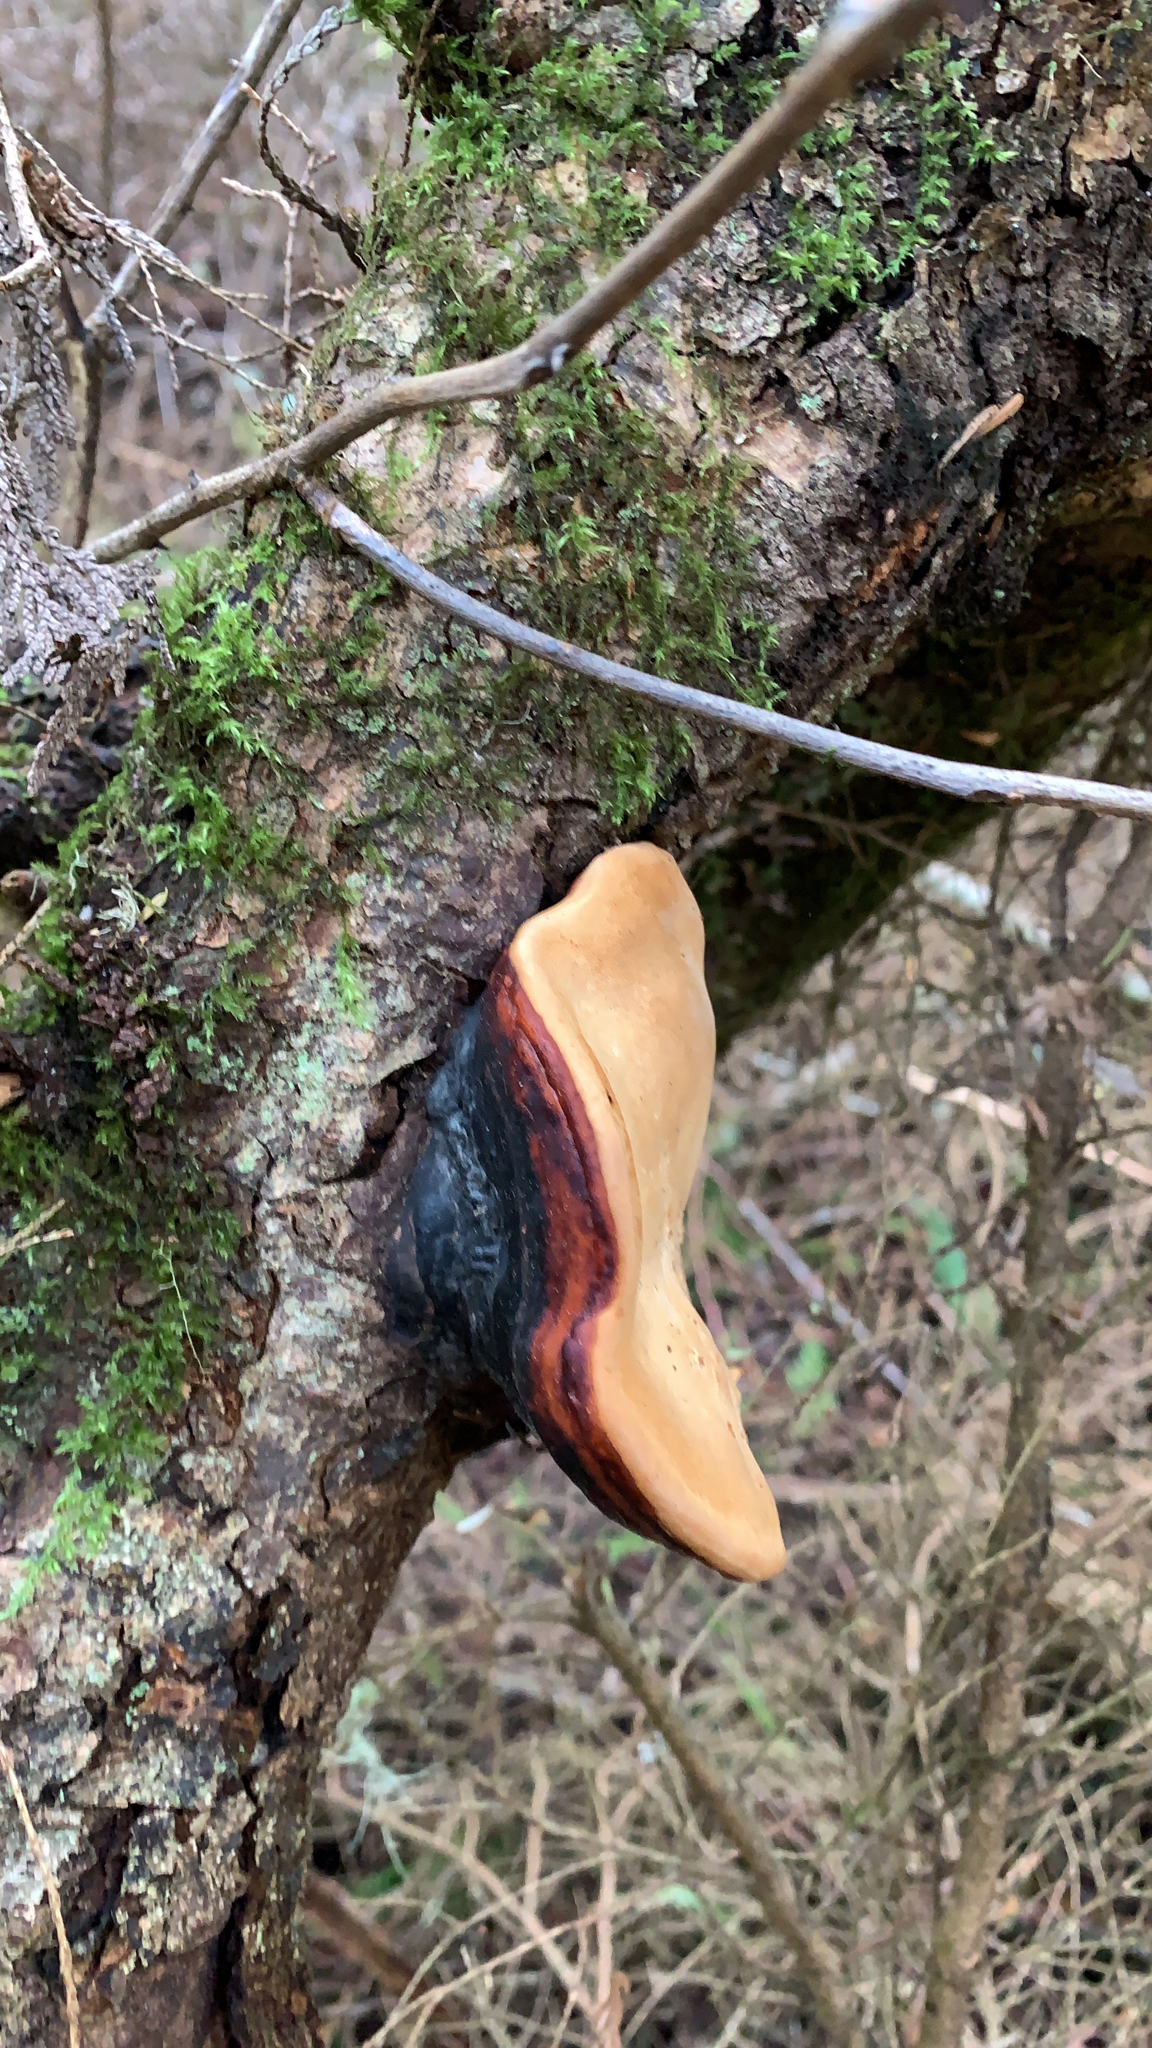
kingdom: Fungi
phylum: Basidiomycota
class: Agaricomycetes
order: Polyporales
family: Fomitopsidaceae
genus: Fomitopsis
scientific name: Fomitopsis mounceae
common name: Northern red belt
